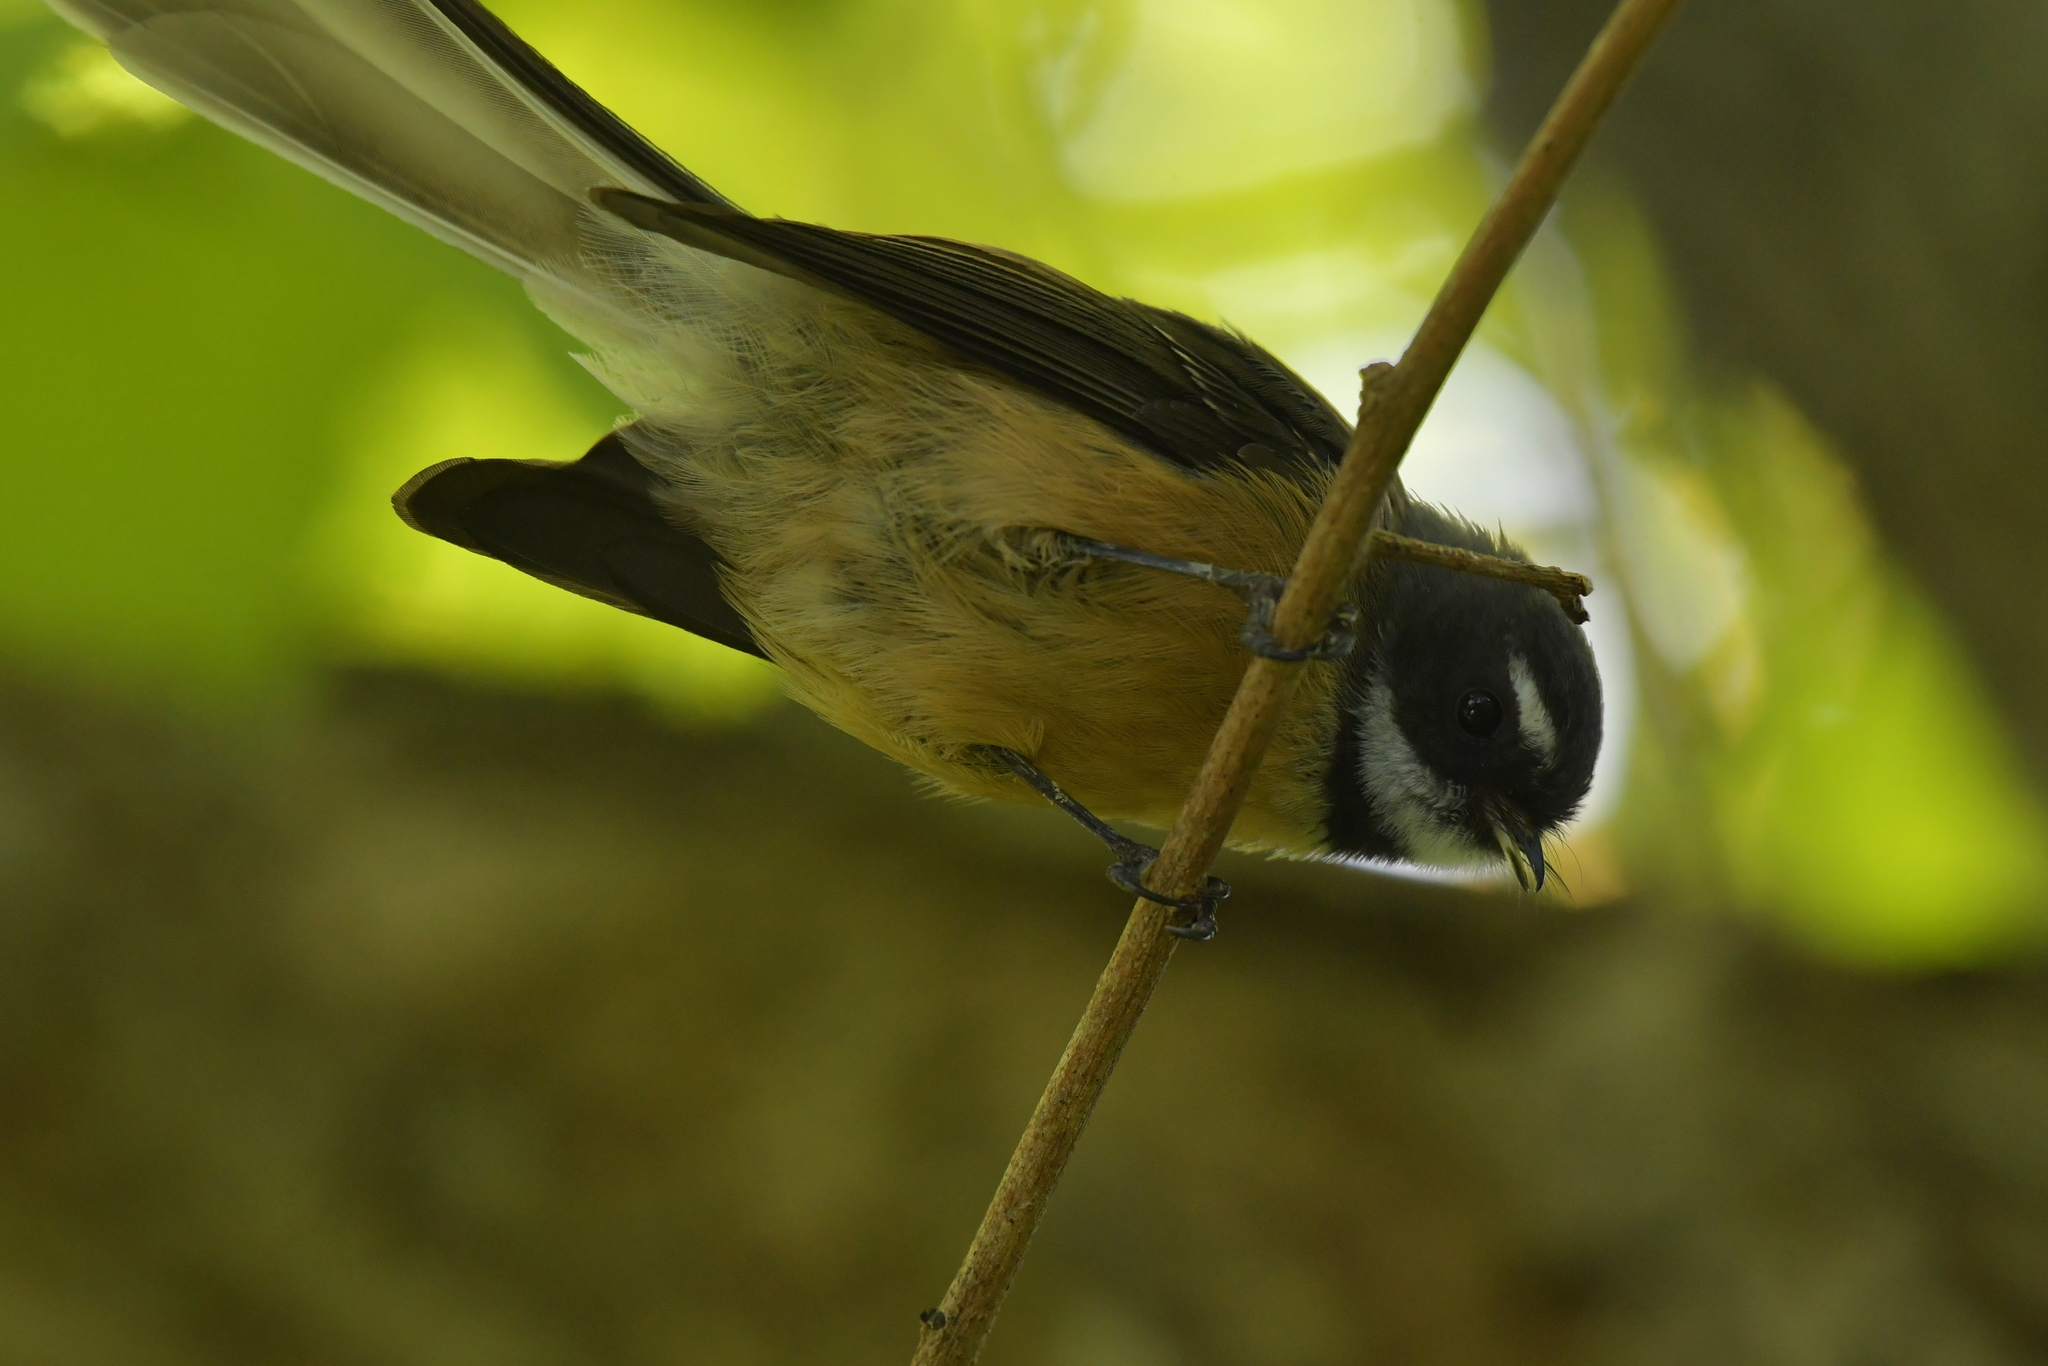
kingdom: Animalia
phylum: Chordata
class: Aves
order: Passeriformes
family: Rhipiduridae
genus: Rhipidura
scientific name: Rhipidura fuliginosa
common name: New zealand fantail
